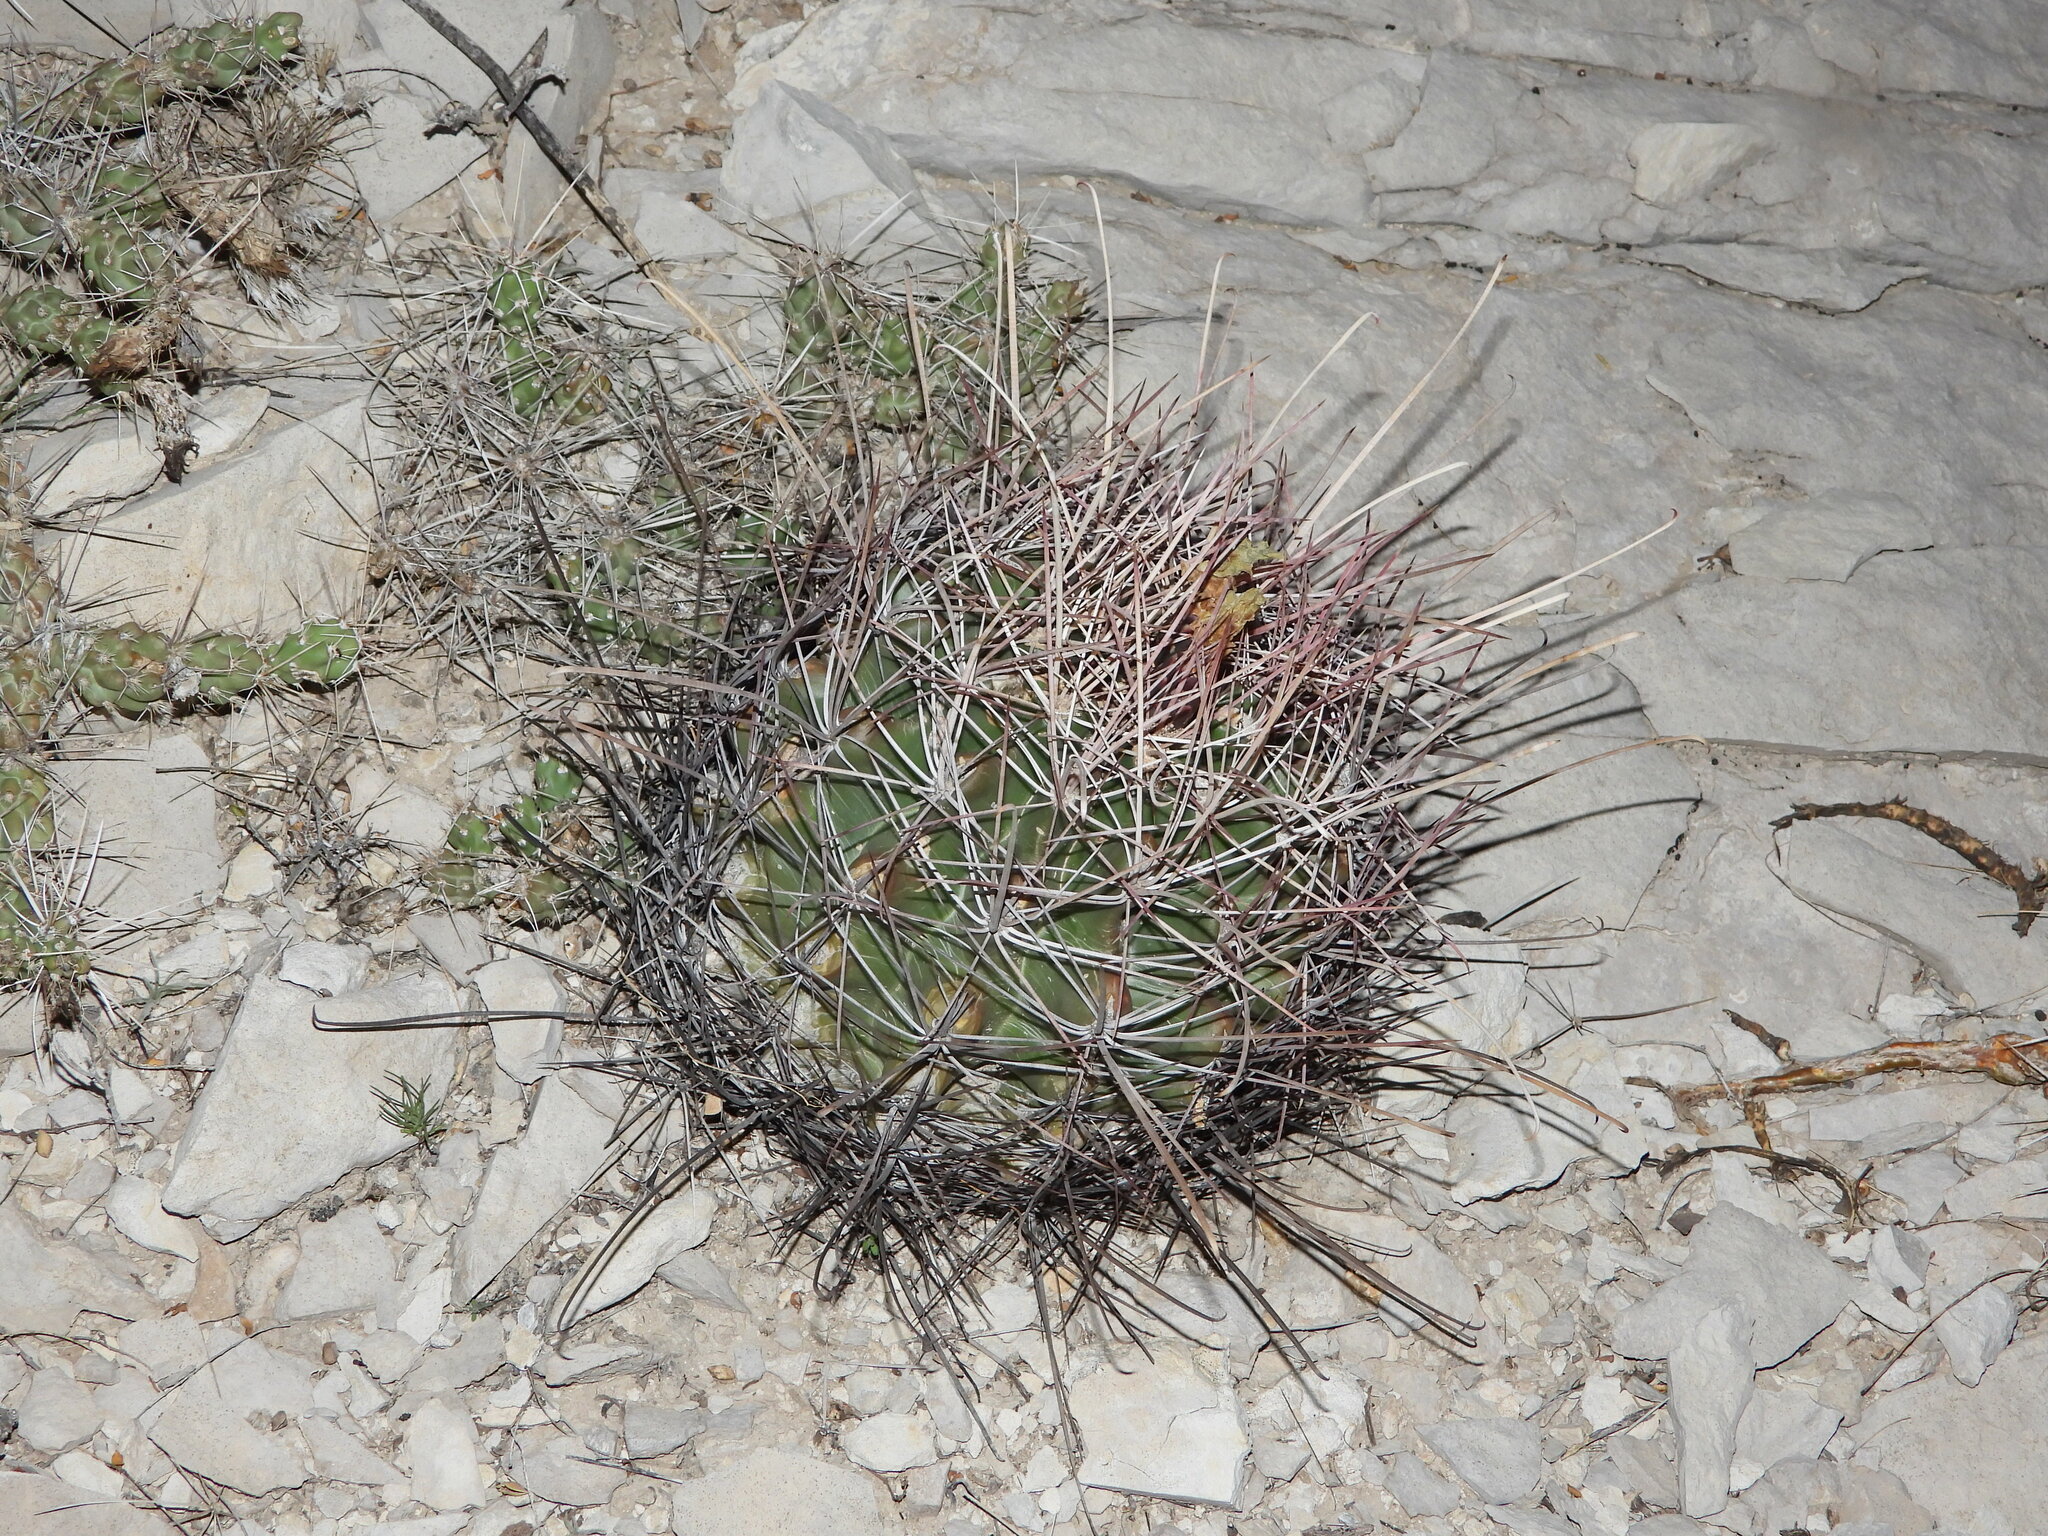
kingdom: Plantae
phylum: Tracheophyta
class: Magnoliopsida
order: Caryophyllales
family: Cactaceae
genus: Bisnaga
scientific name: Bisnaga hamatacantha
